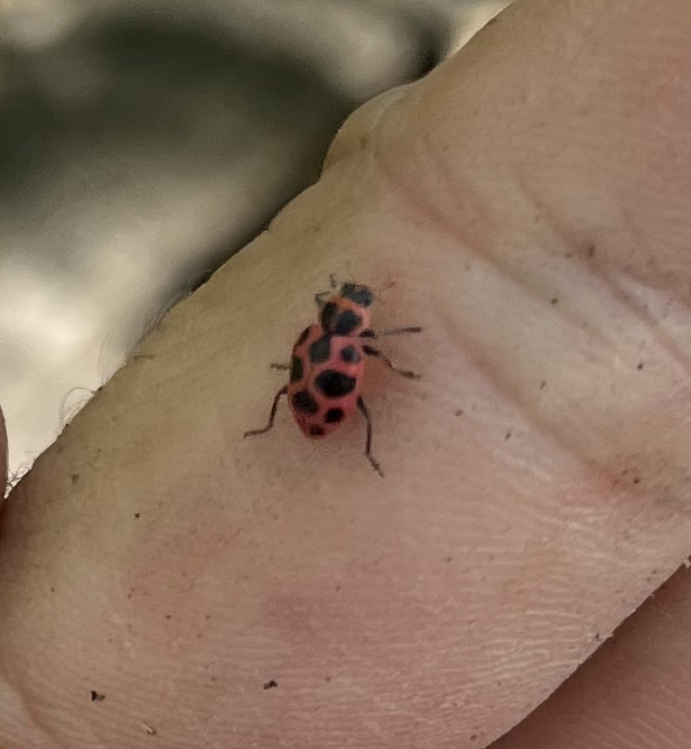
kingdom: Animalia
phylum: Arthropoda
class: Insecta
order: Coleoptera
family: Coccinellidae
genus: Coleomegilla
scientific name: Coleomegilla maculata
